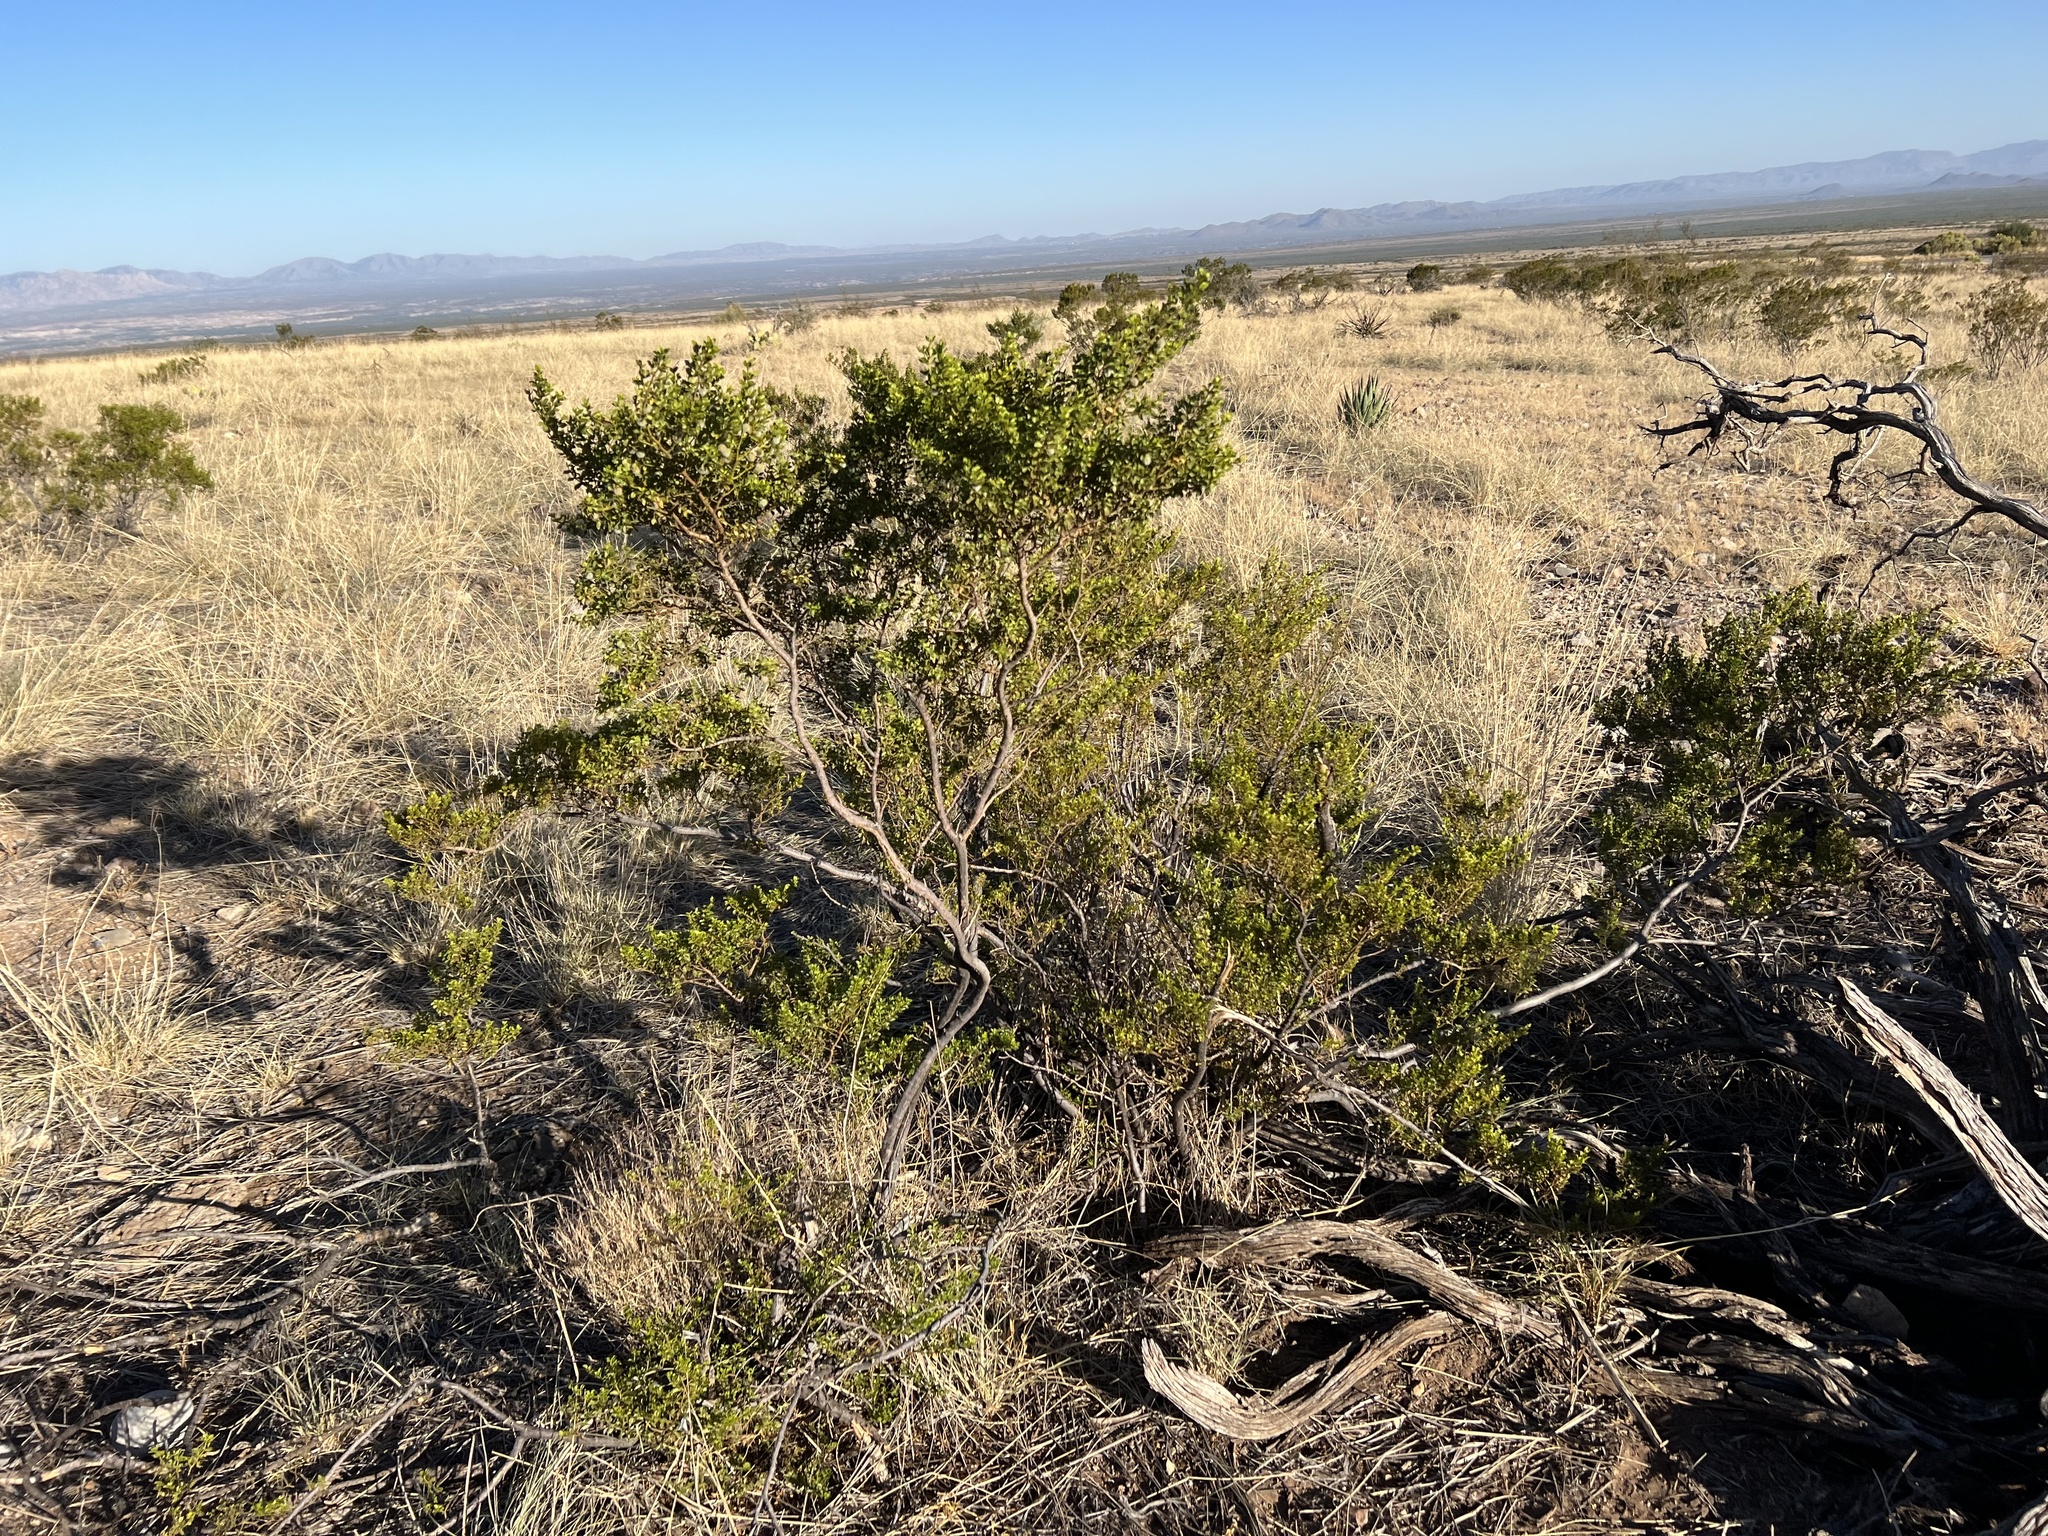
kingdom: Plantae
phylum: Tracheophyta
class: Magnoliopsida
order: Zygophyllales
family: Zygophyllaceae
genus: Larrea
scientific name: Larrea tridentata
